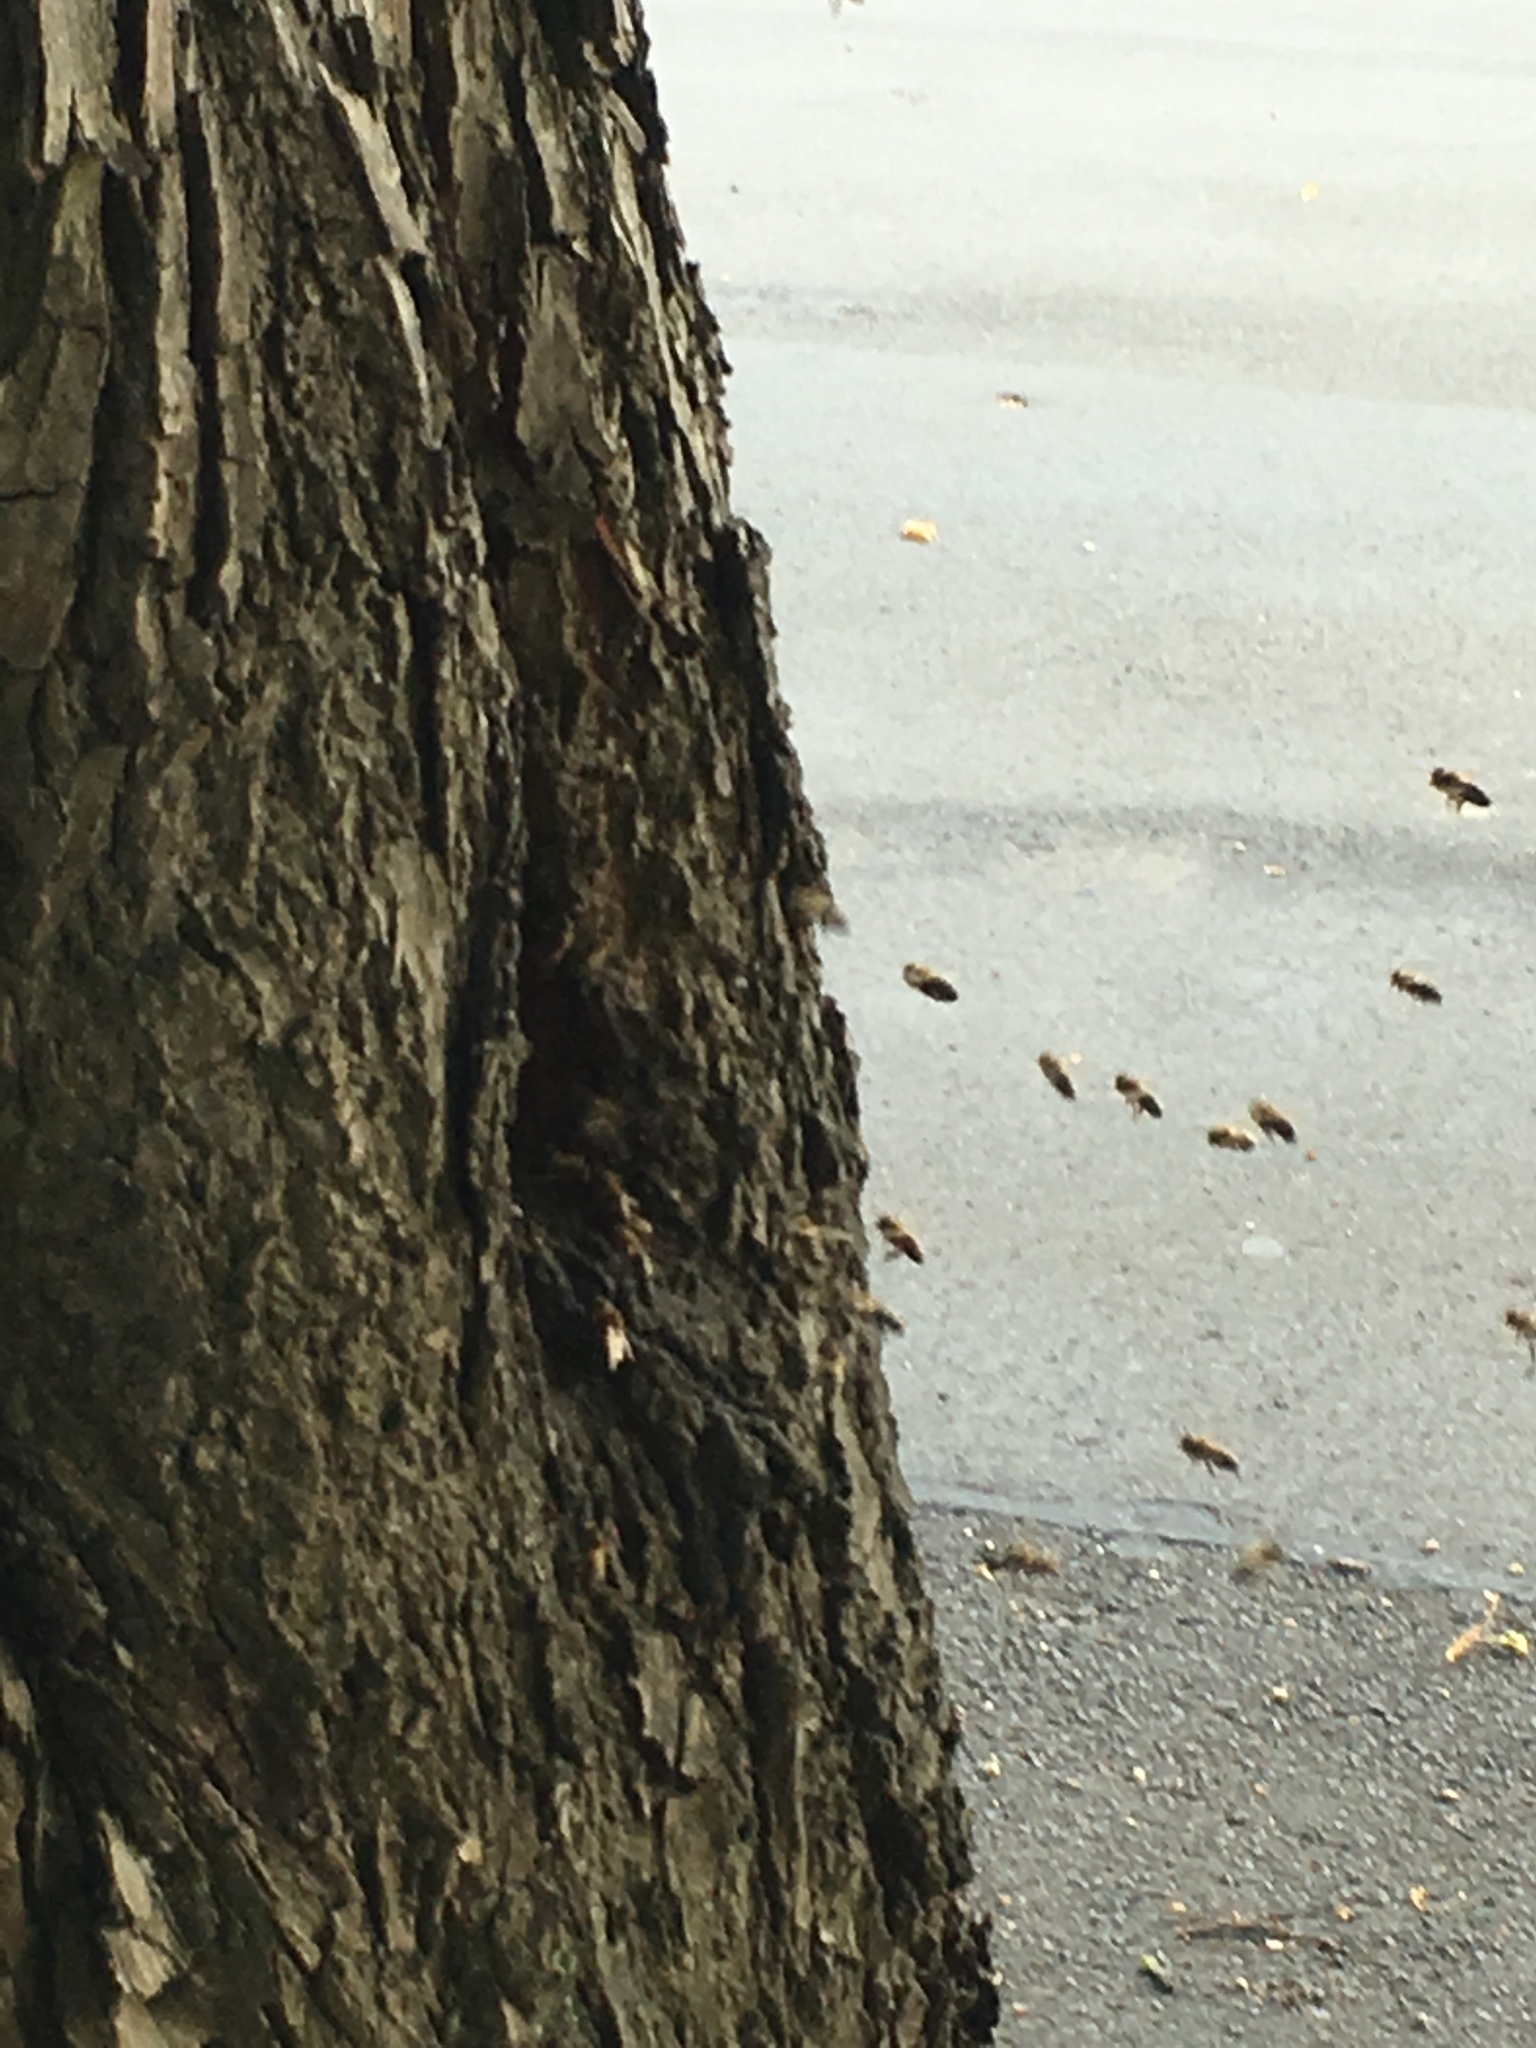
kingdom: Animalia
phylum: Arthropoda
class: Insecta
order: Hymenoptera
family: Apidae
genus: Apis
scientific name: Apis mellifera
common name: Honey bee
